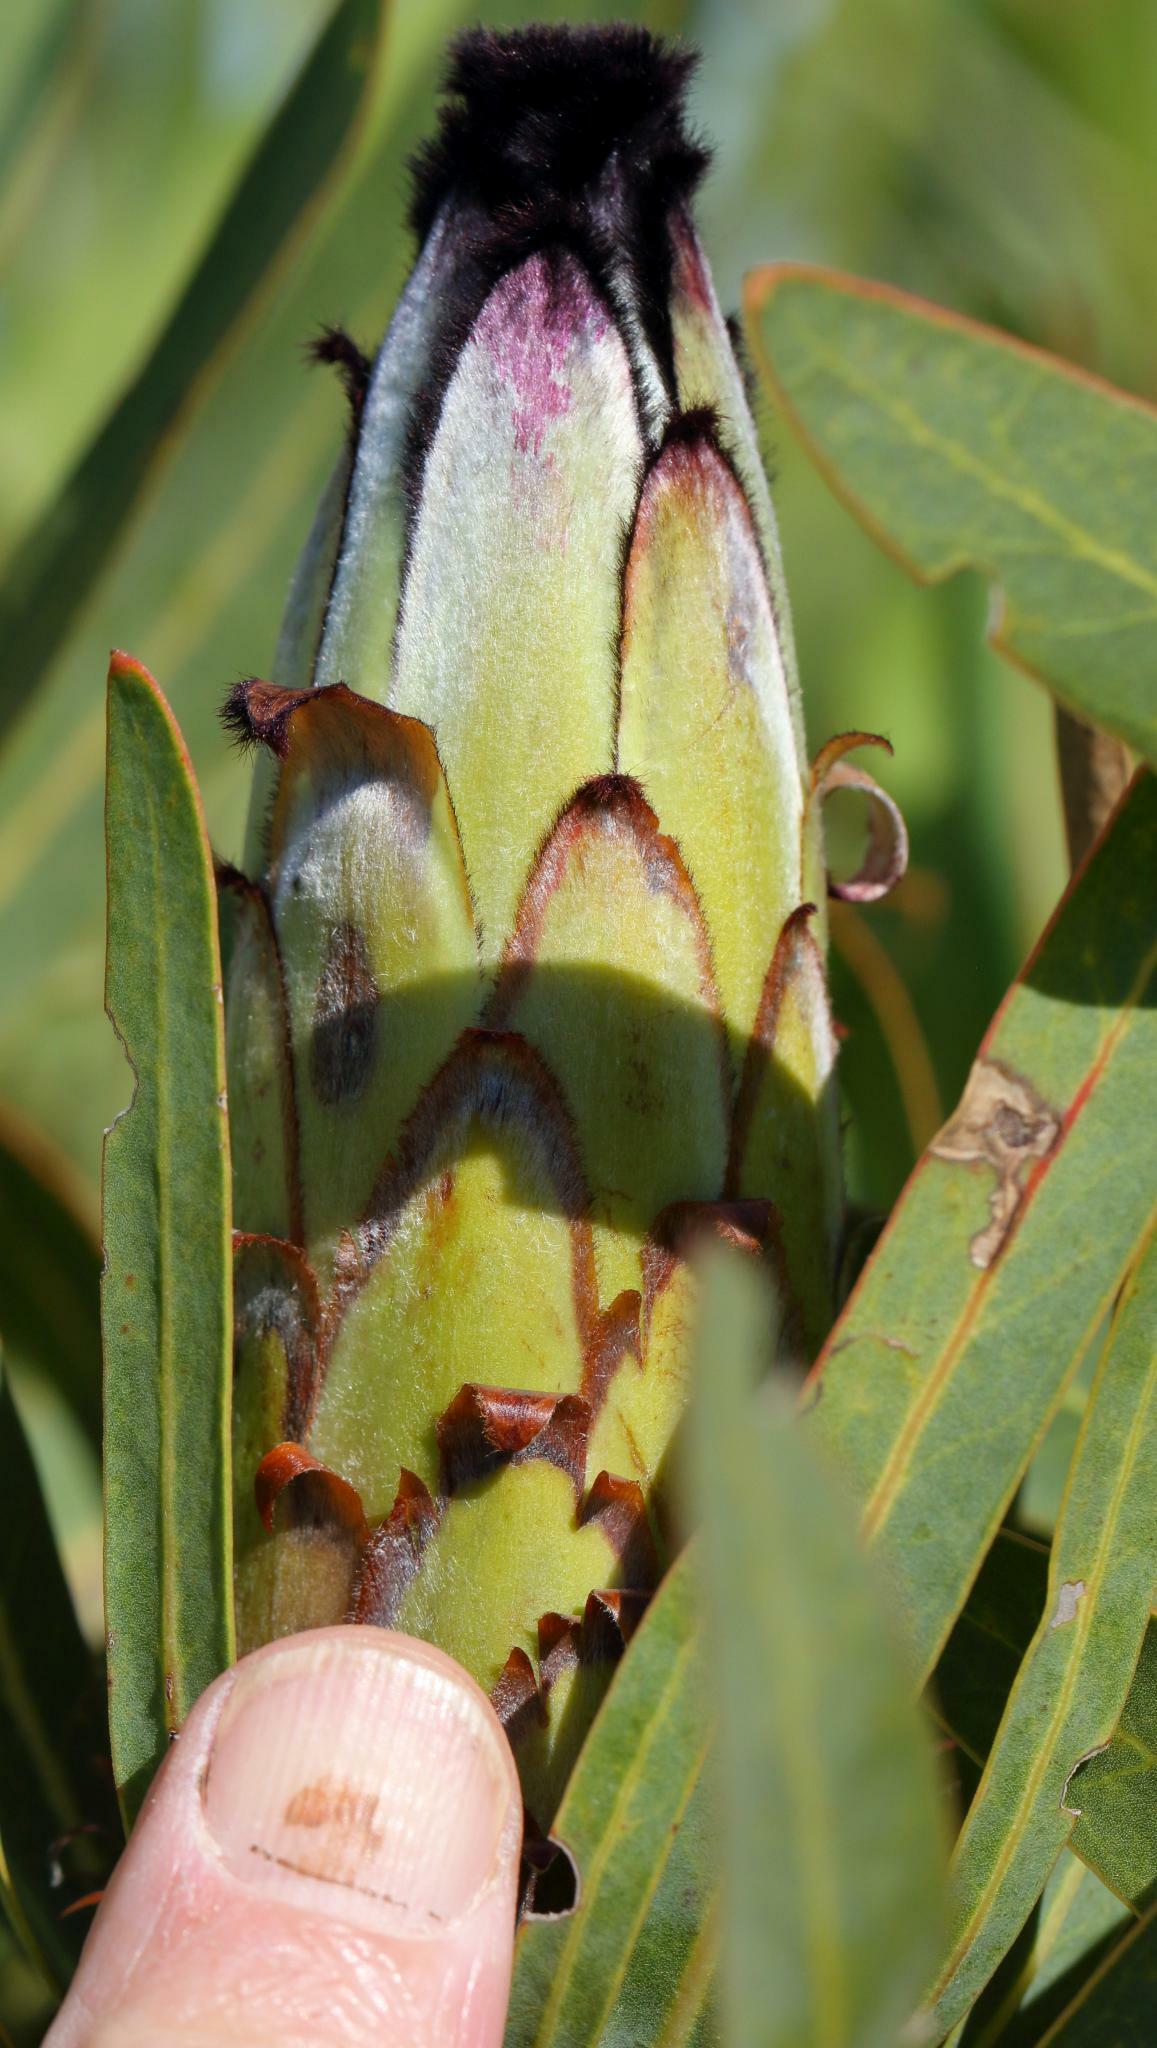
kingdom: Plantae
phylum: Tracheophyta
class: Magnoliopsida
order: Proteales
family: Proteaceae
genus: Protea
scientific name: Protea neriifolia
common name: Blue sugarbush
